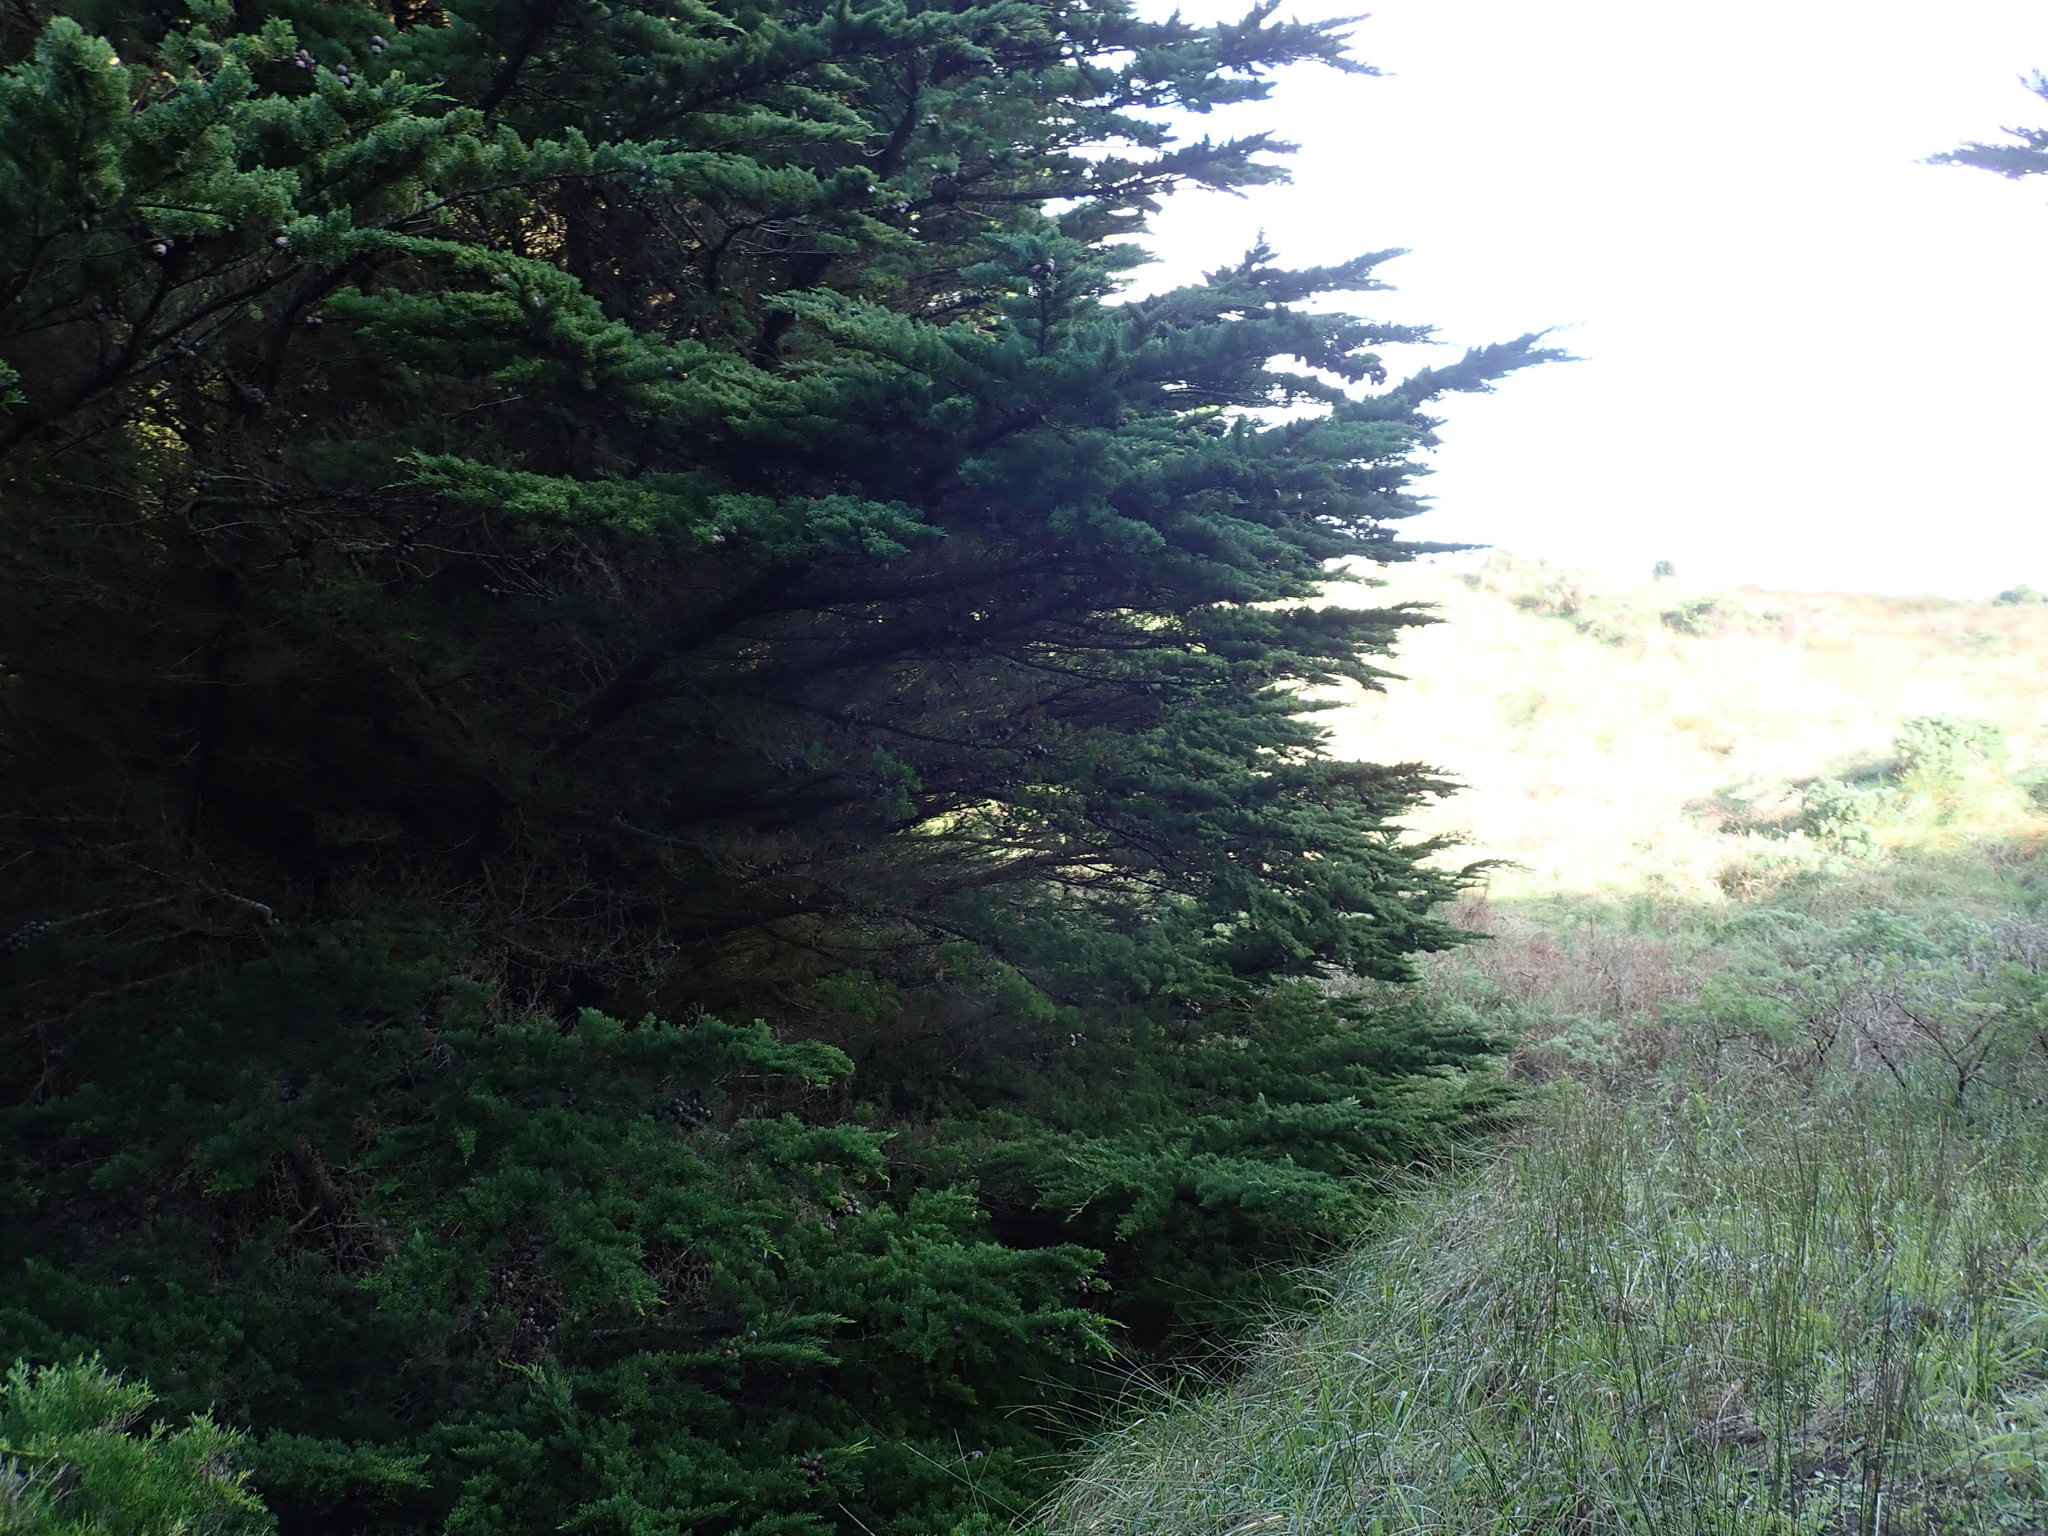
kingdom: Plantae
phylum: Tracheophyta
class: Pinopsida
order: Pinales
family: Cupressaceae
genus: Cupressus
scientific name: Cupressus macrocarpa
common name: Monterey cypress
